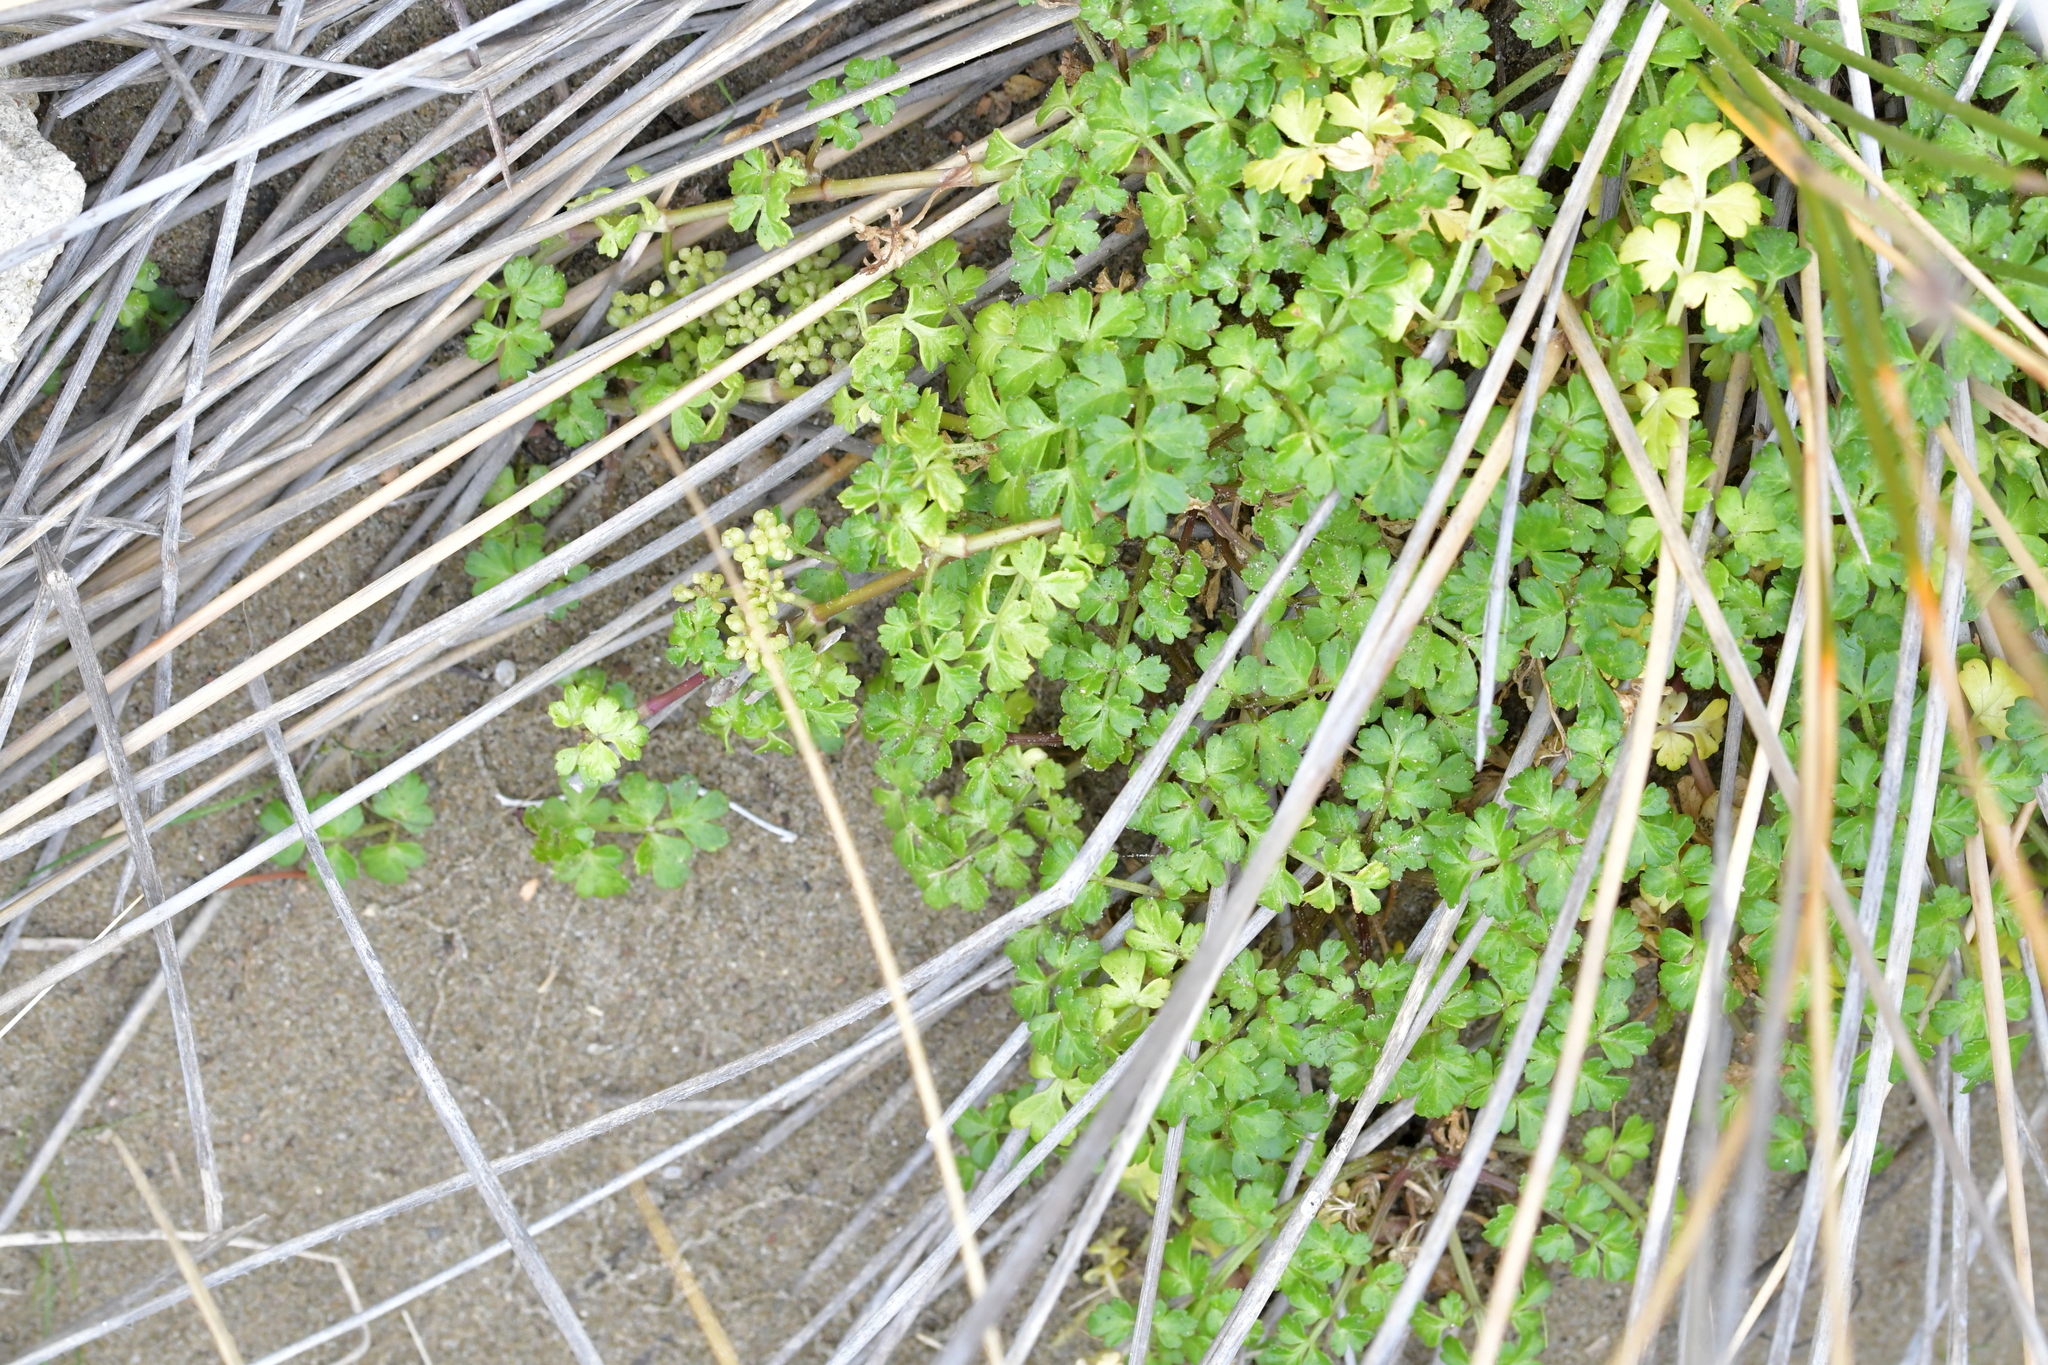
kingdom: Plantae
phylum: Tracheophyta
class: Magnoliopsida
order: Apiales
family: Apiaceae
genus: Apium
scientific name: Apium prostratum
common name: Prostrate marshwort
